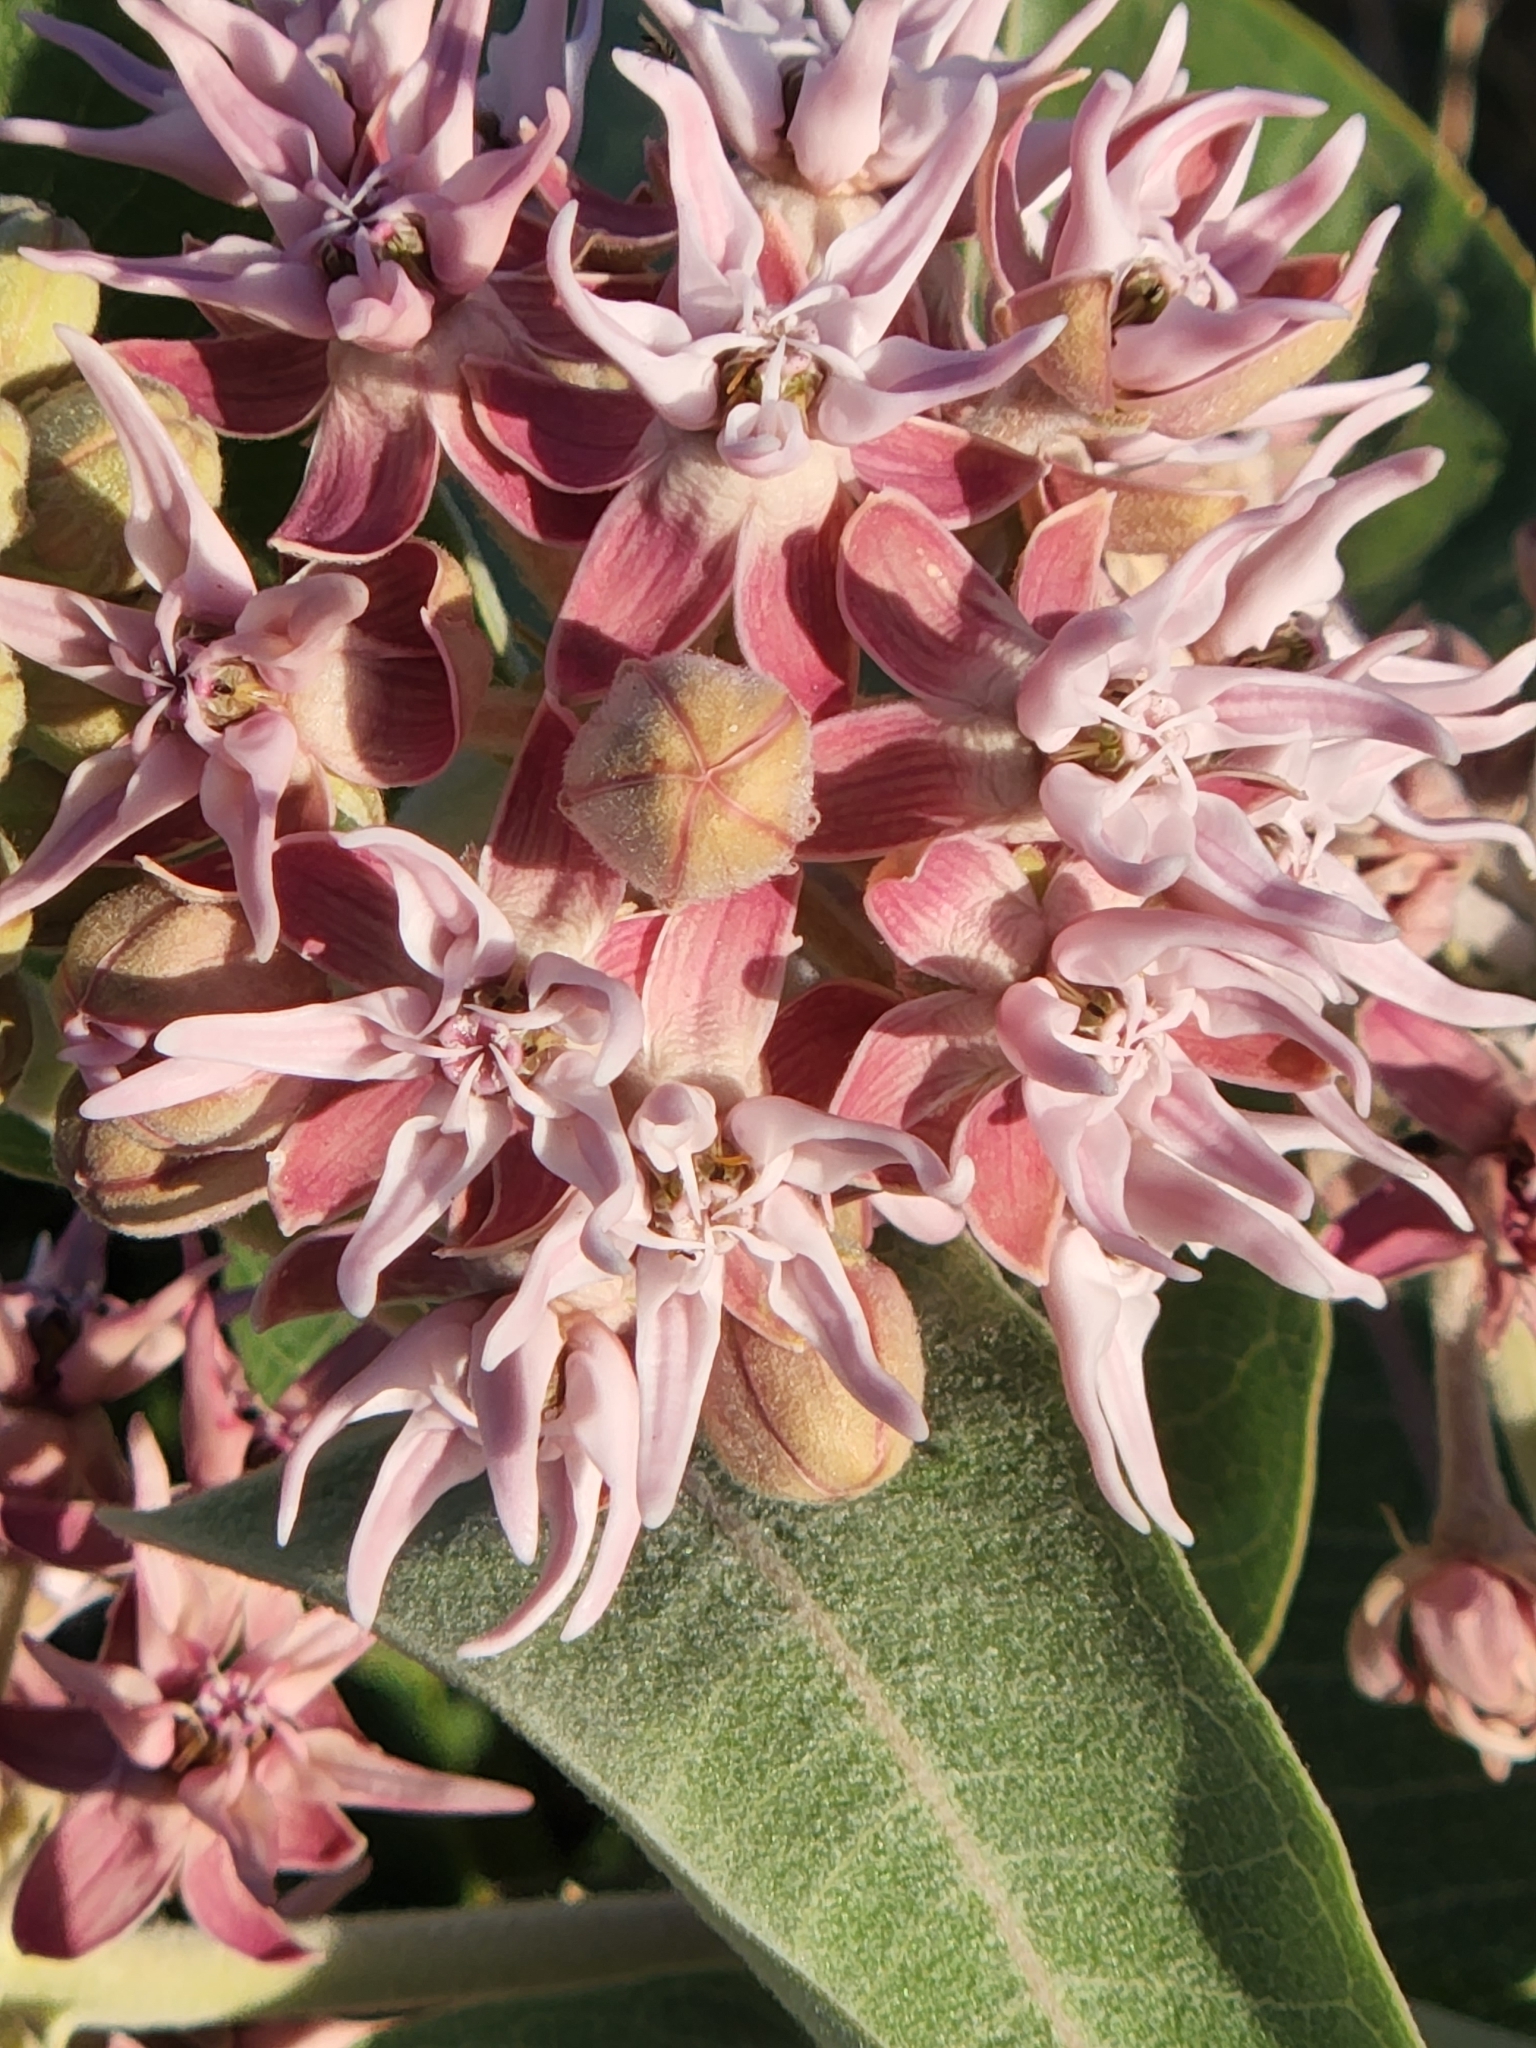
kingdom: Plantae
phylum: Tracheophyta
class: Magnoliopsida
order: Gentianales
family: Apocynaceae
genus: Asclepias
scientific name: Asclepias speciosa
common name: Showy milkweed
